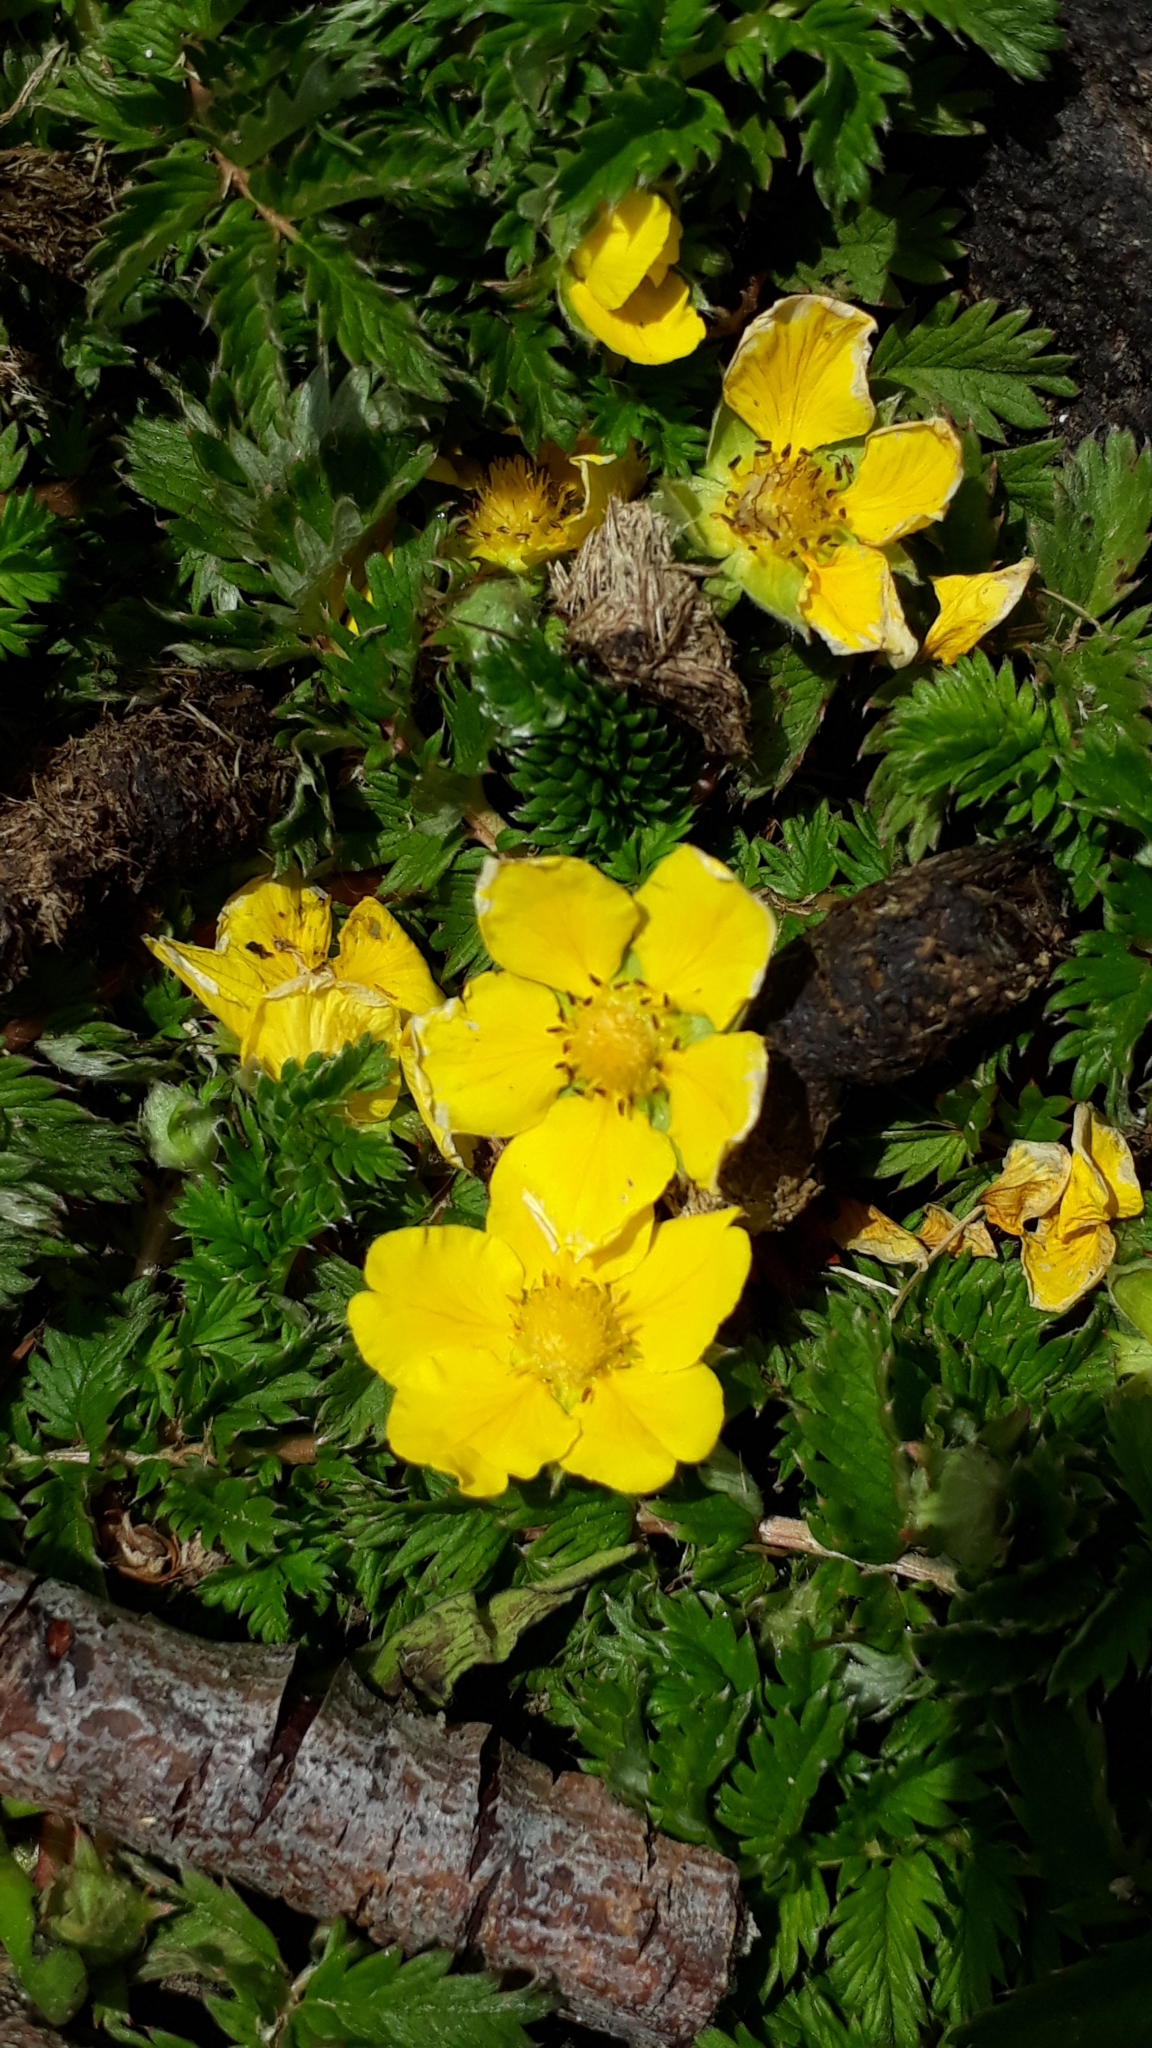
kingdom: Plantae
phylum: Tracheophyta
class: Magnoliopsida
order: Rosales
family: Rosaceae
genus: Argentina
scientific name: Argentina anserina
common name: Common silverweed
